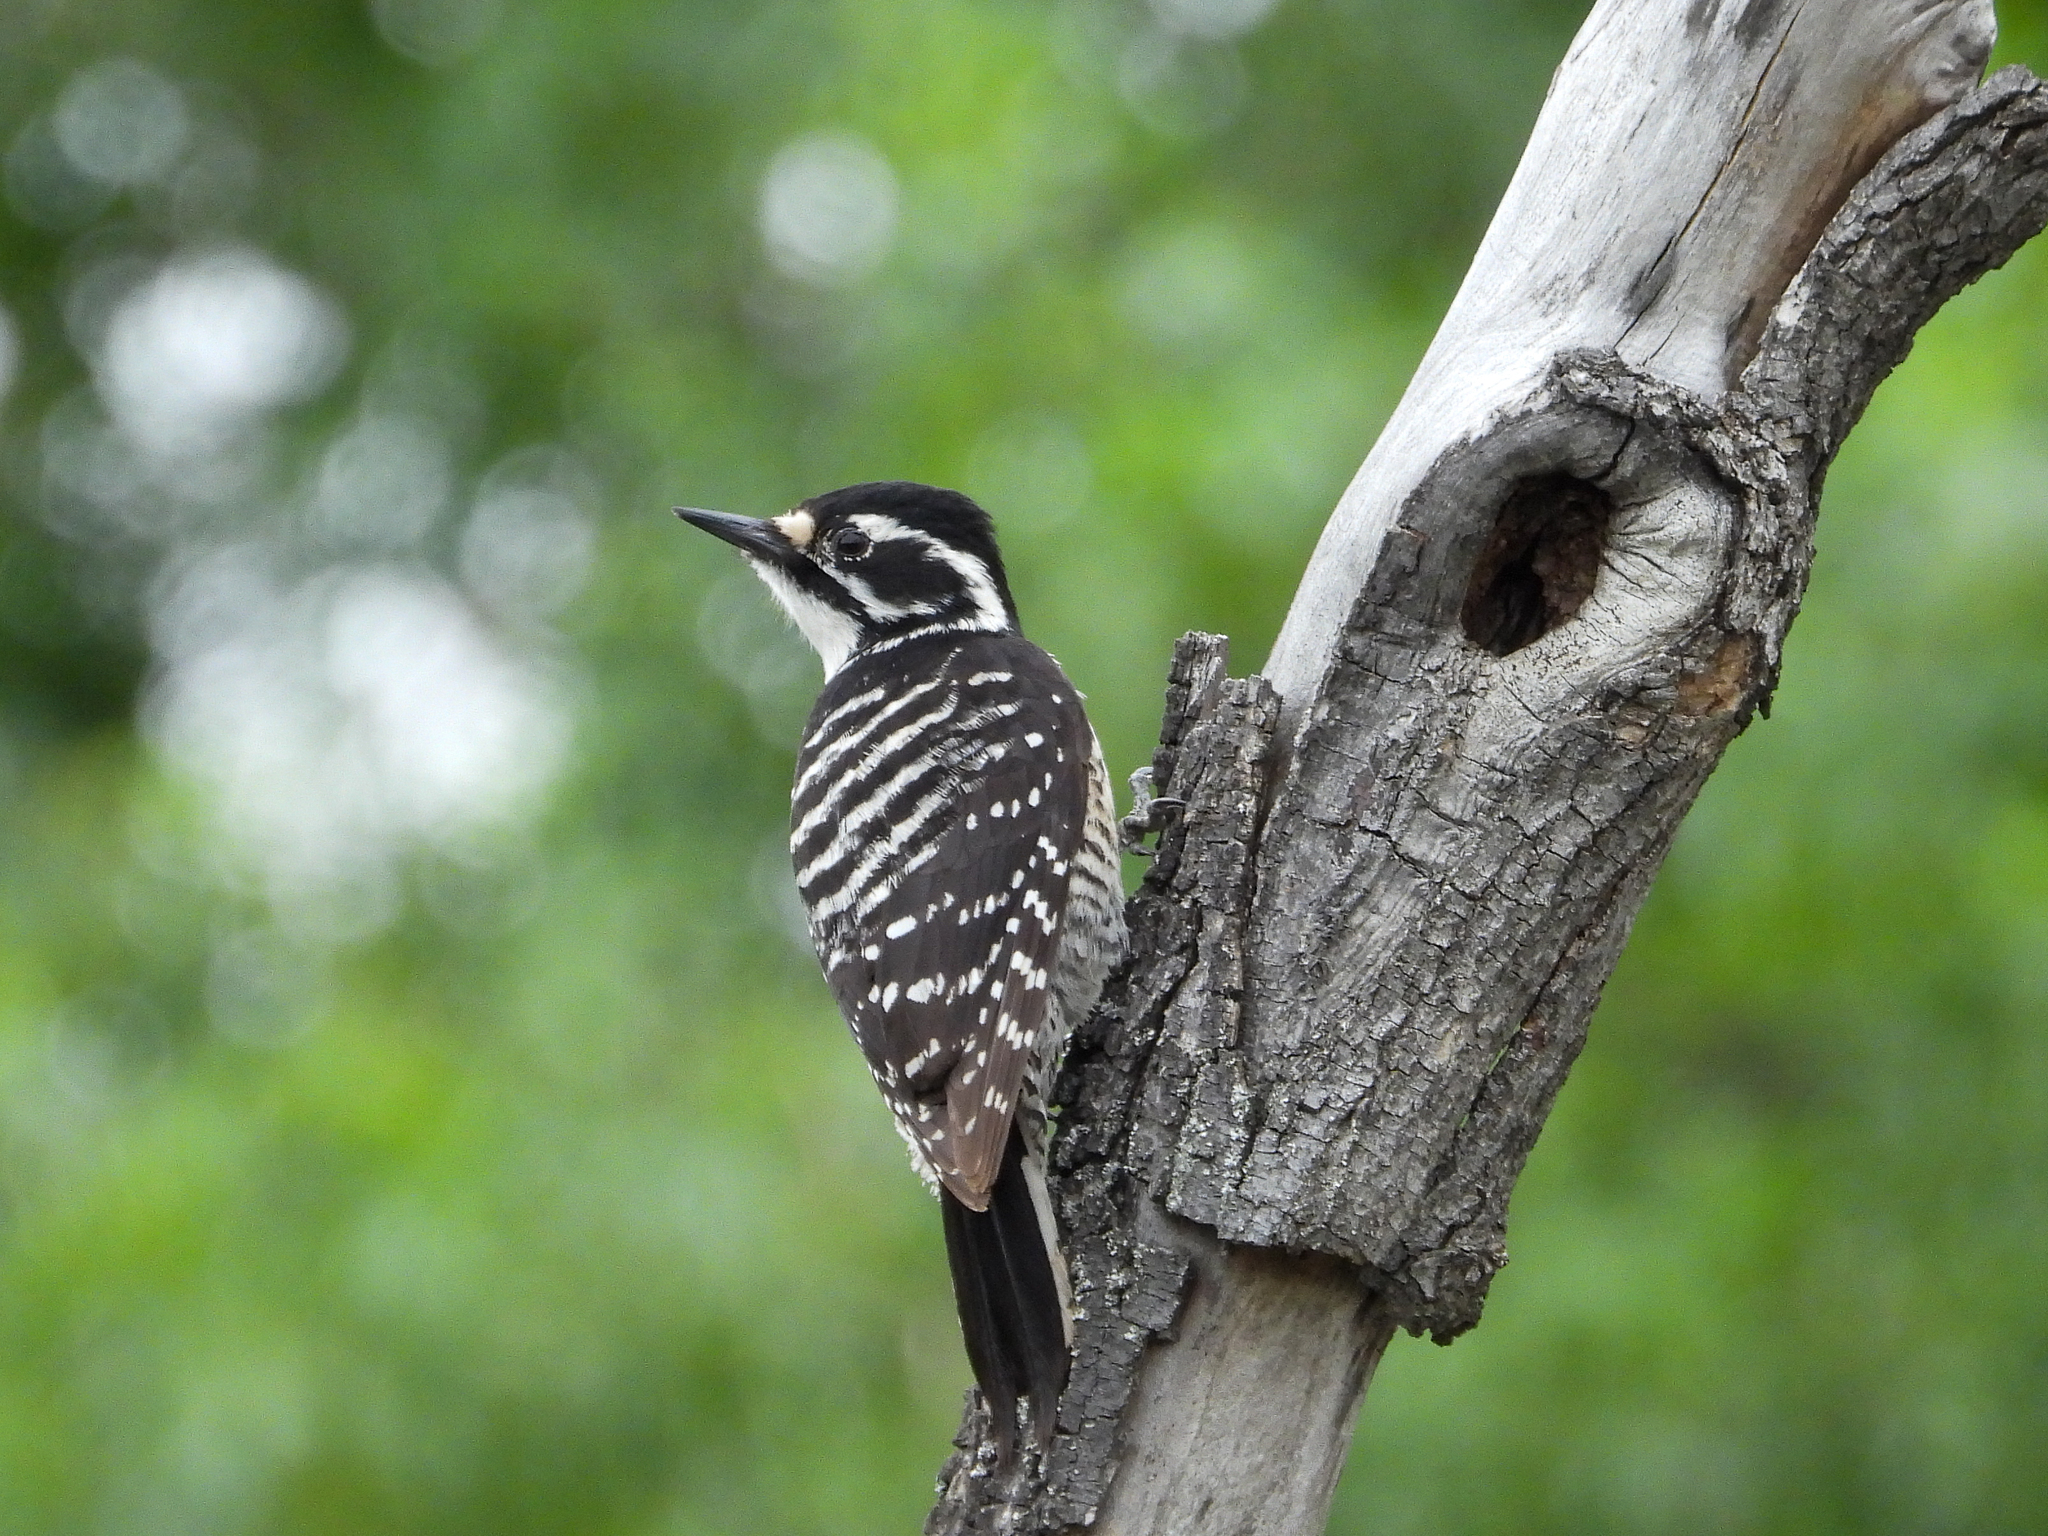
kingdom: Animalia
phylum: Chordata
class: Aves
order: Piciformes
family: Picidae
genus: Dryobates
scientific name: Dryobates nuttallii
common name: Nuttall's woodpecker
